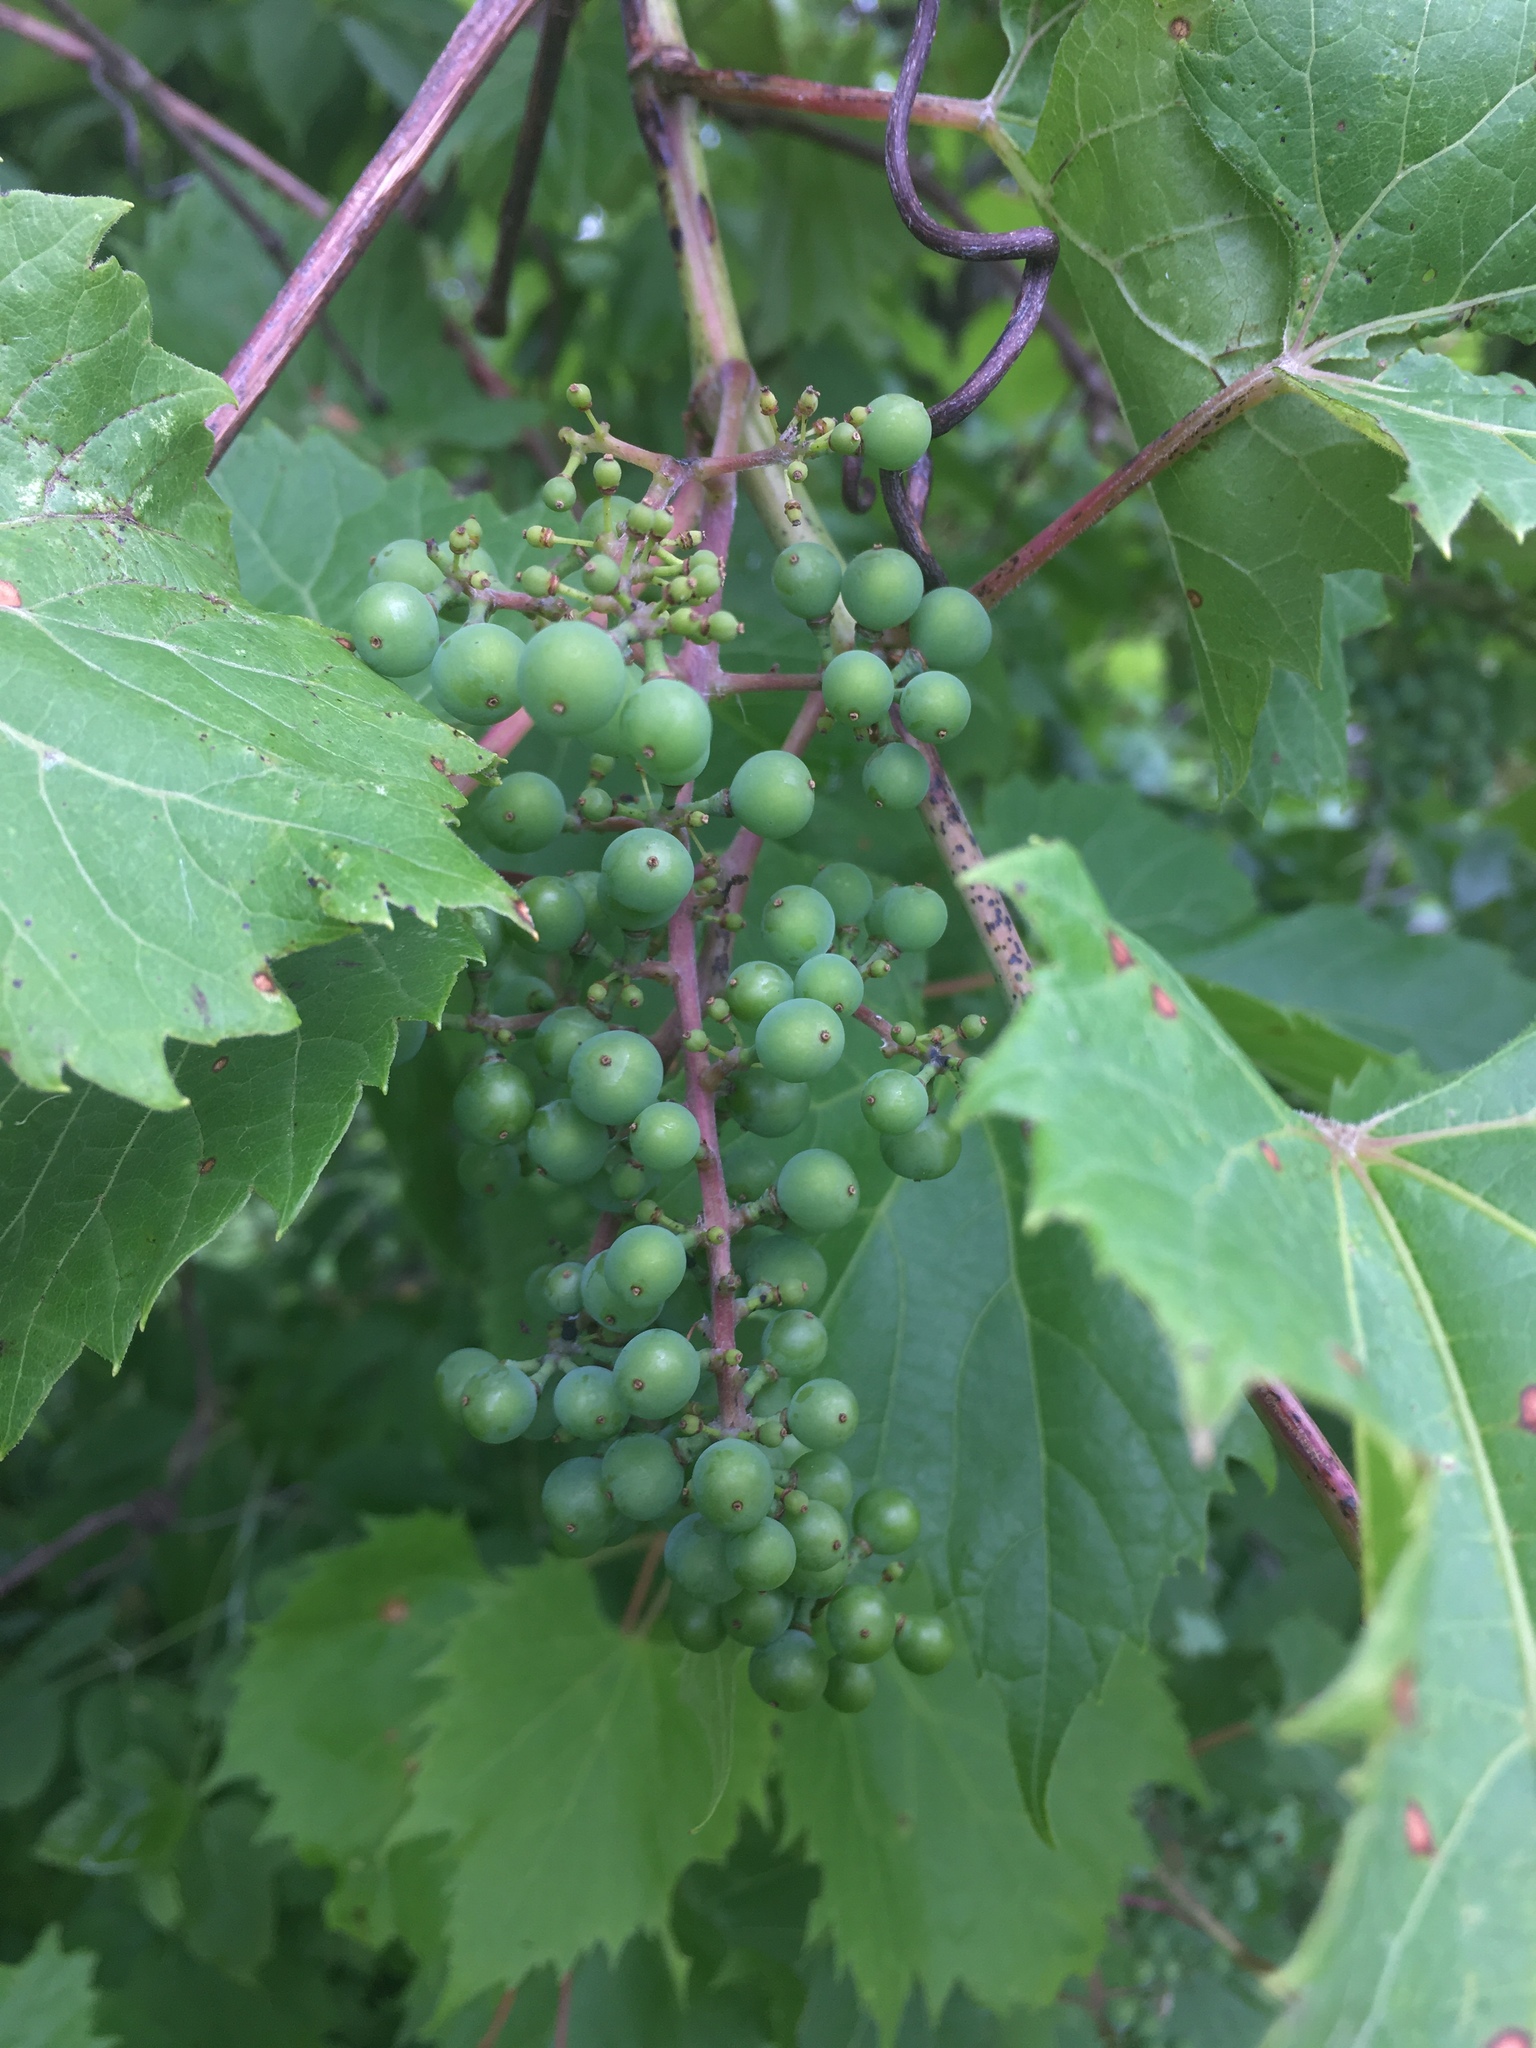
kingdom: Plantae
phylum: Tracheophyta
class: Magnoliopsida
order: Vitales
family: Vitaceae
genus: Vitis
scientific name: Vitis riparia
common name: Frost grape
